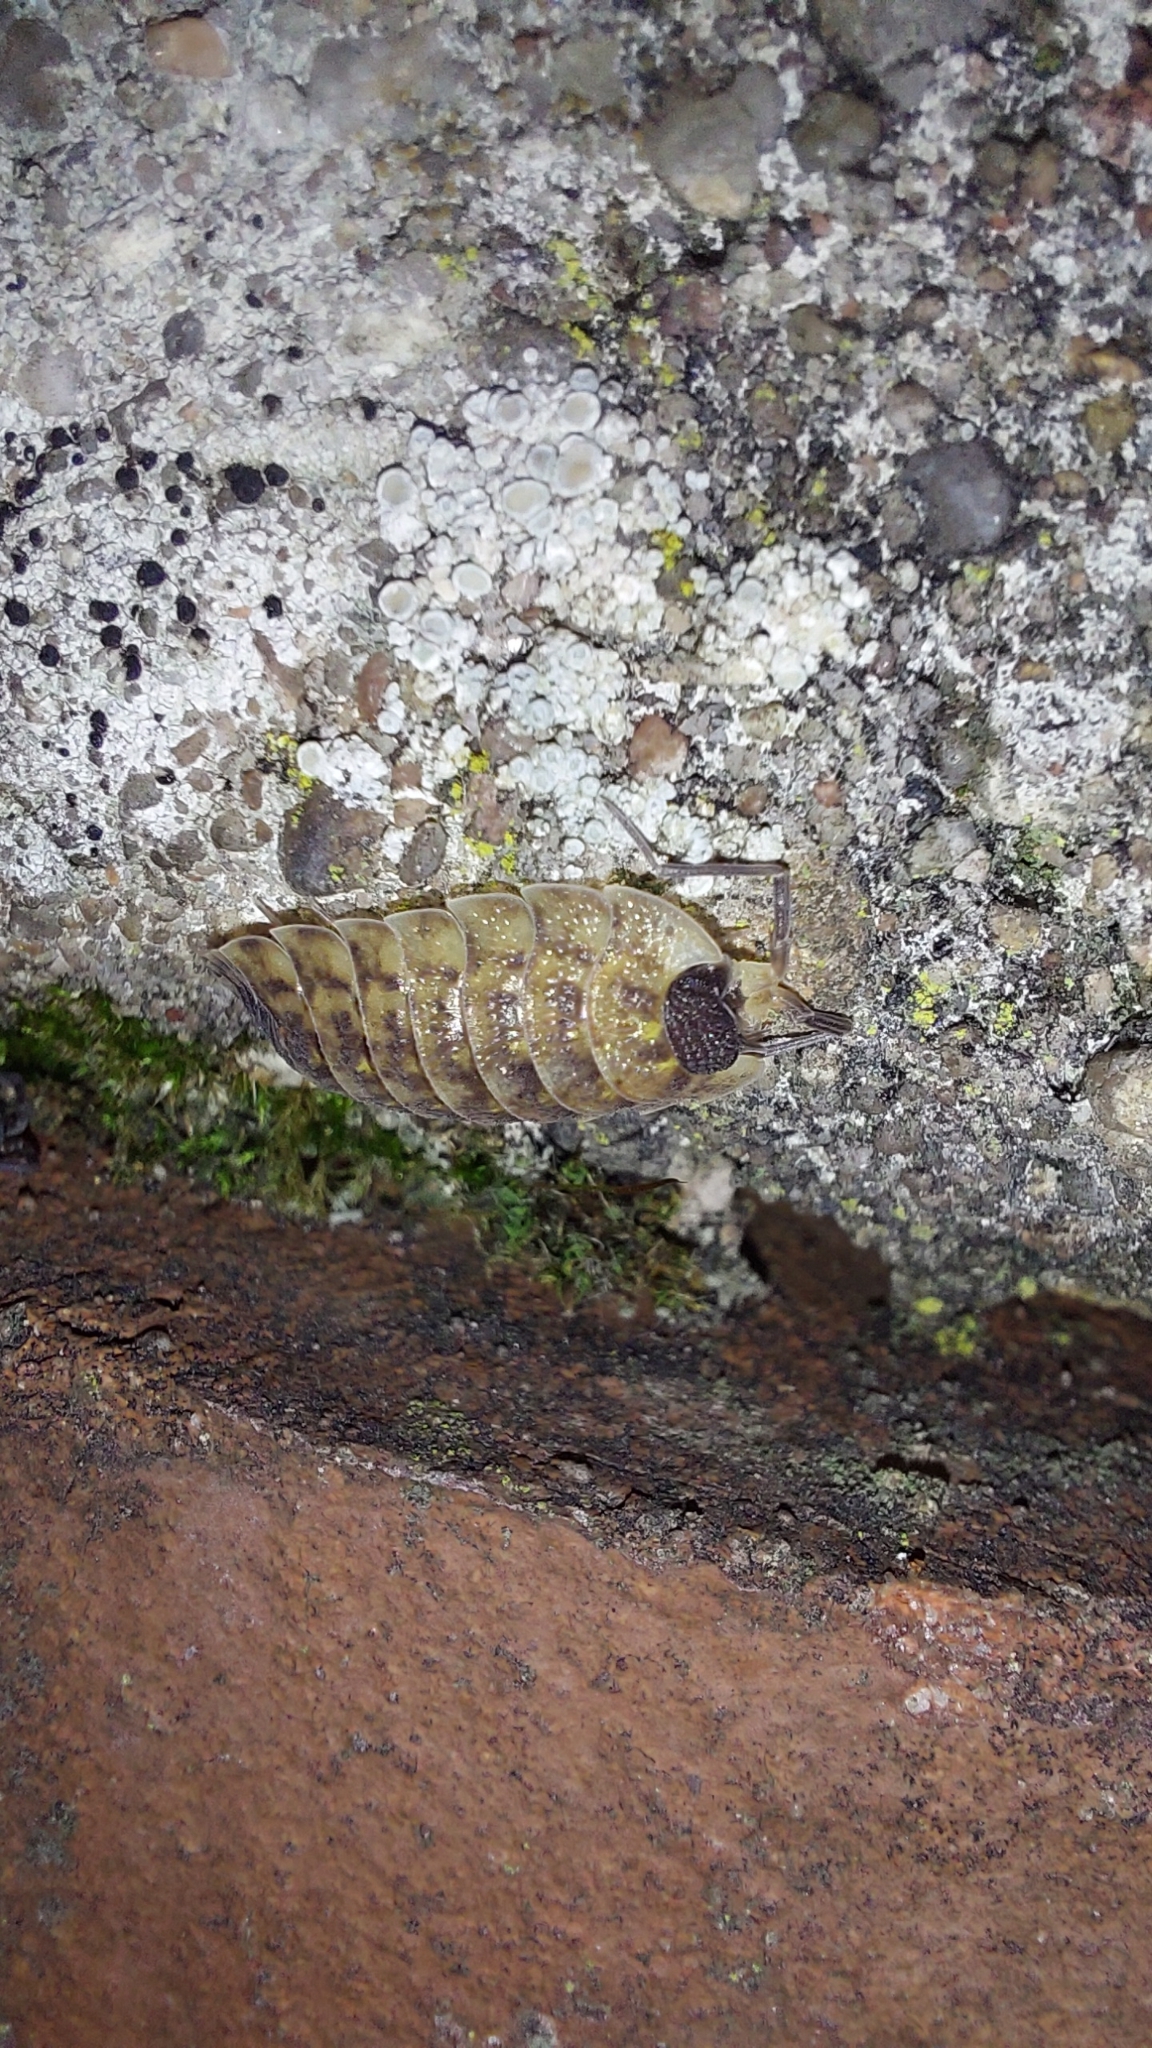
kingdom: Animalia
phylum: Arthropoda
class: Malacostraca
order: Isopoda
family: Porcellionidae
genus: Porcellio
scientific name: Porcellio spinicornis
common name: Painted woodlouse
